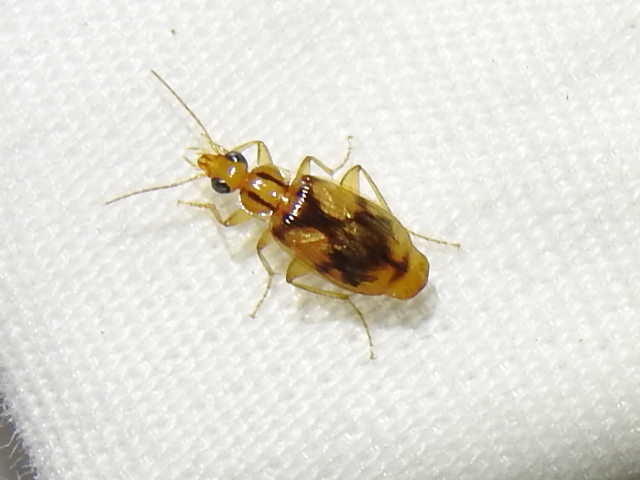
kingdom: Animalia
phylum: Arthropoda
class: Insecta
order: Coleoptera
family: Carabidae
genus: Nemotarsus
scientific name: Nemotarsus rhombifer
